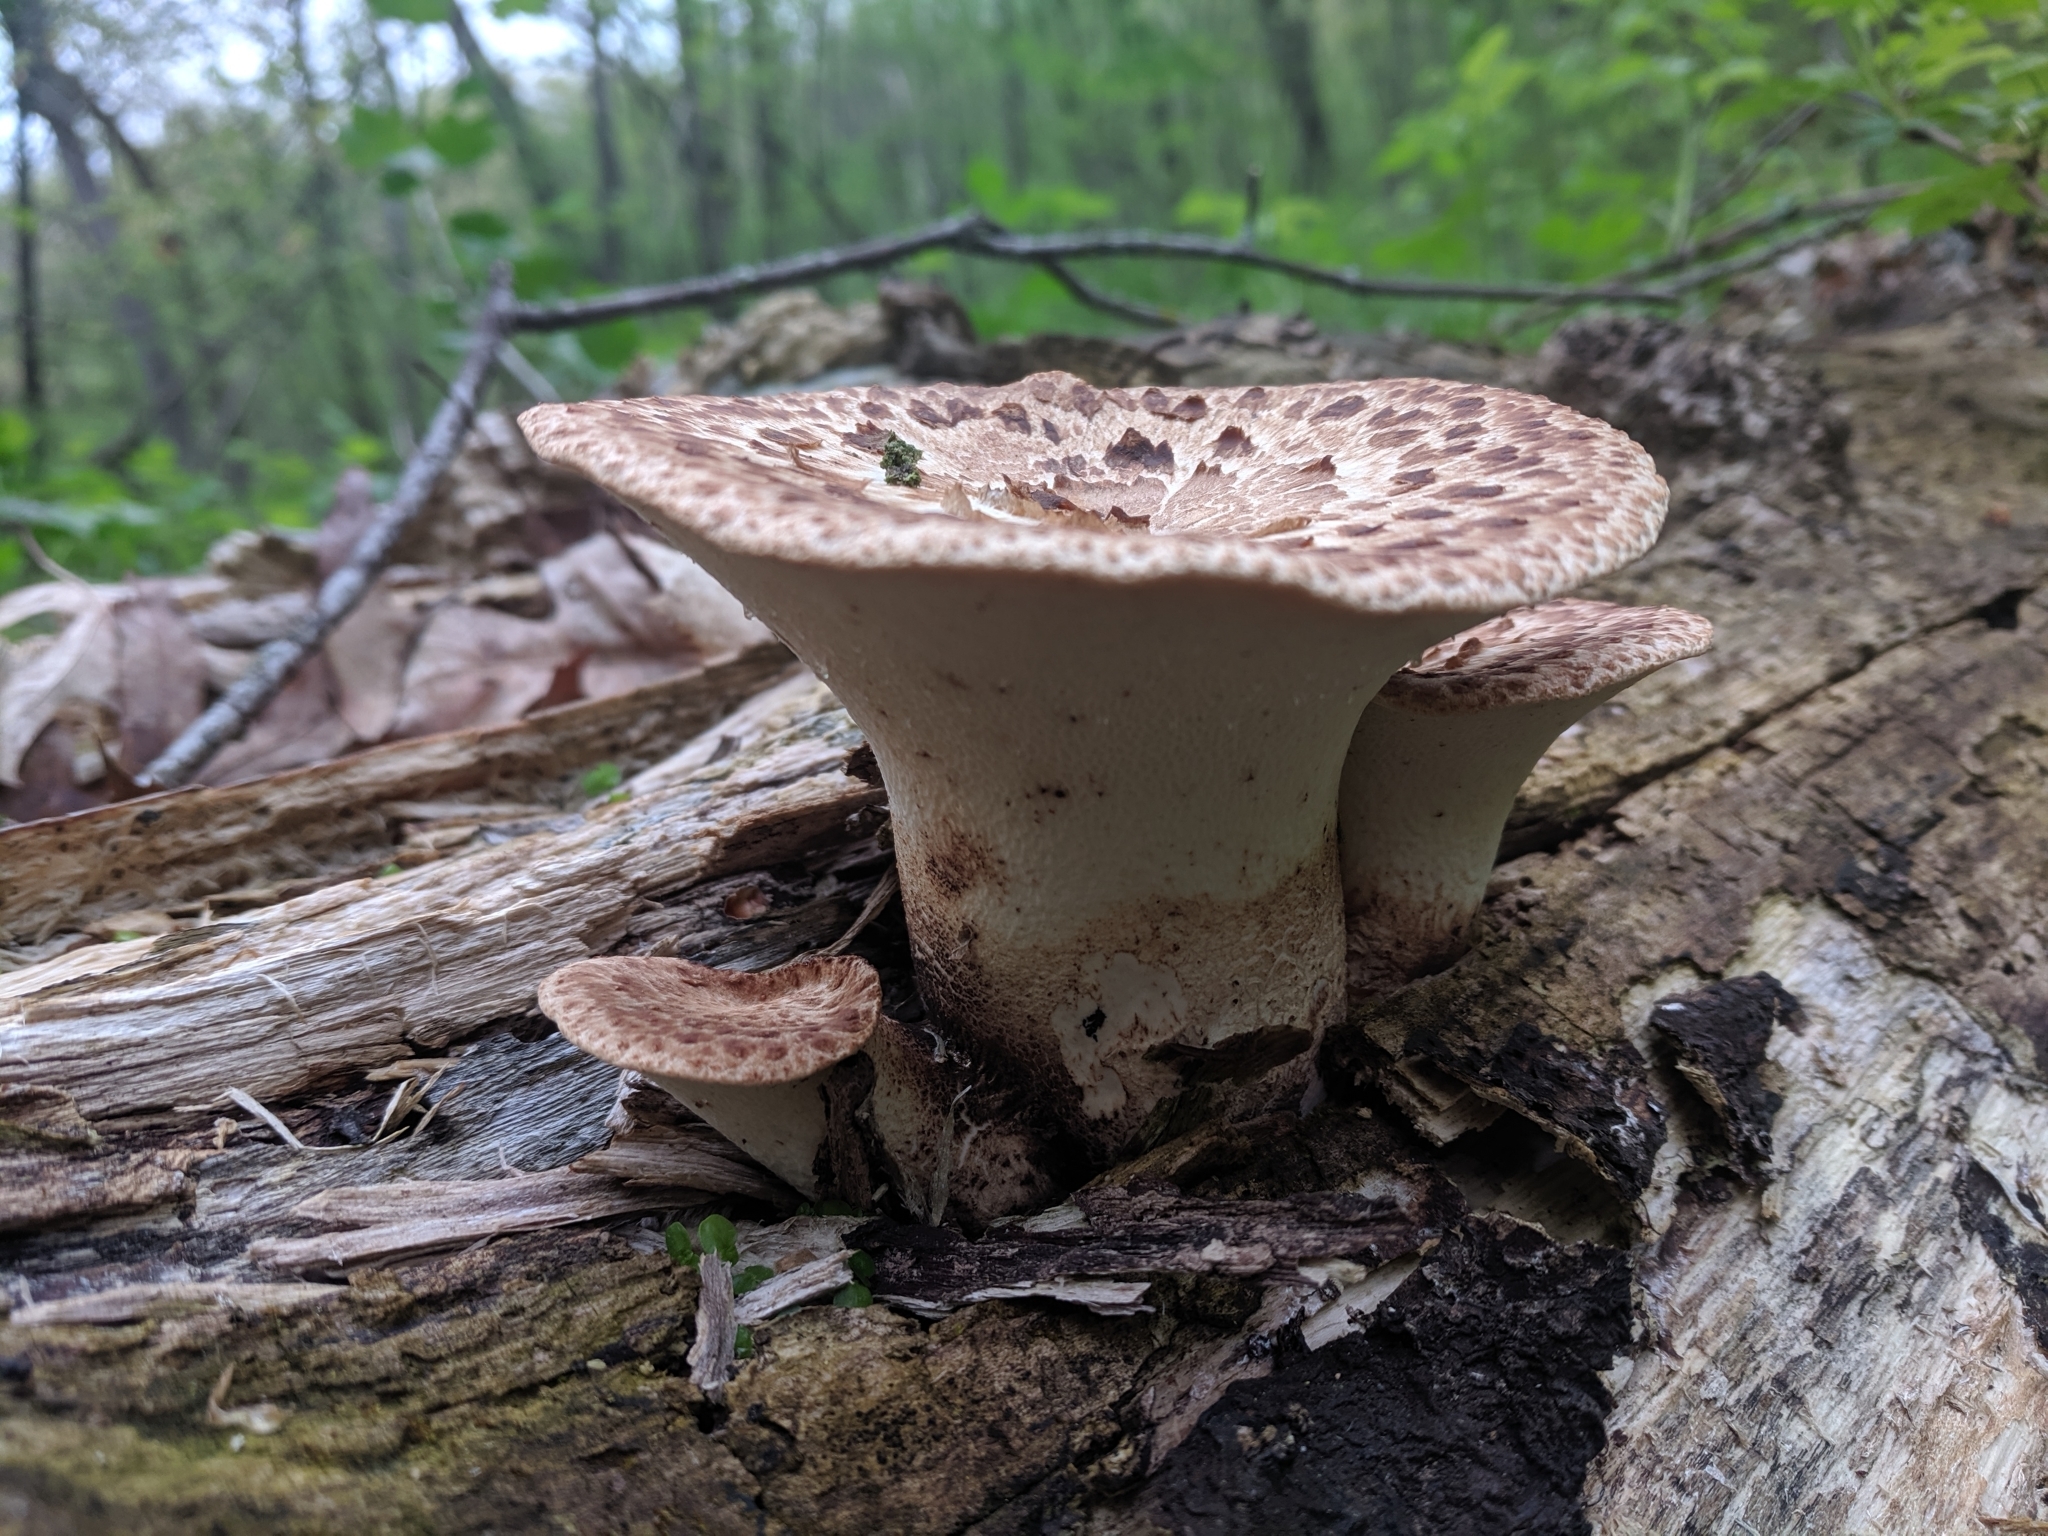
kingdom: Fungi
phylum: Basidiomycota
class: Agaricomycetes
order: Polyporales
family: Polyporaceae
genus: Cerioporus
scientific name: Cerioporus squamosus
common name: Dryad's saddle
